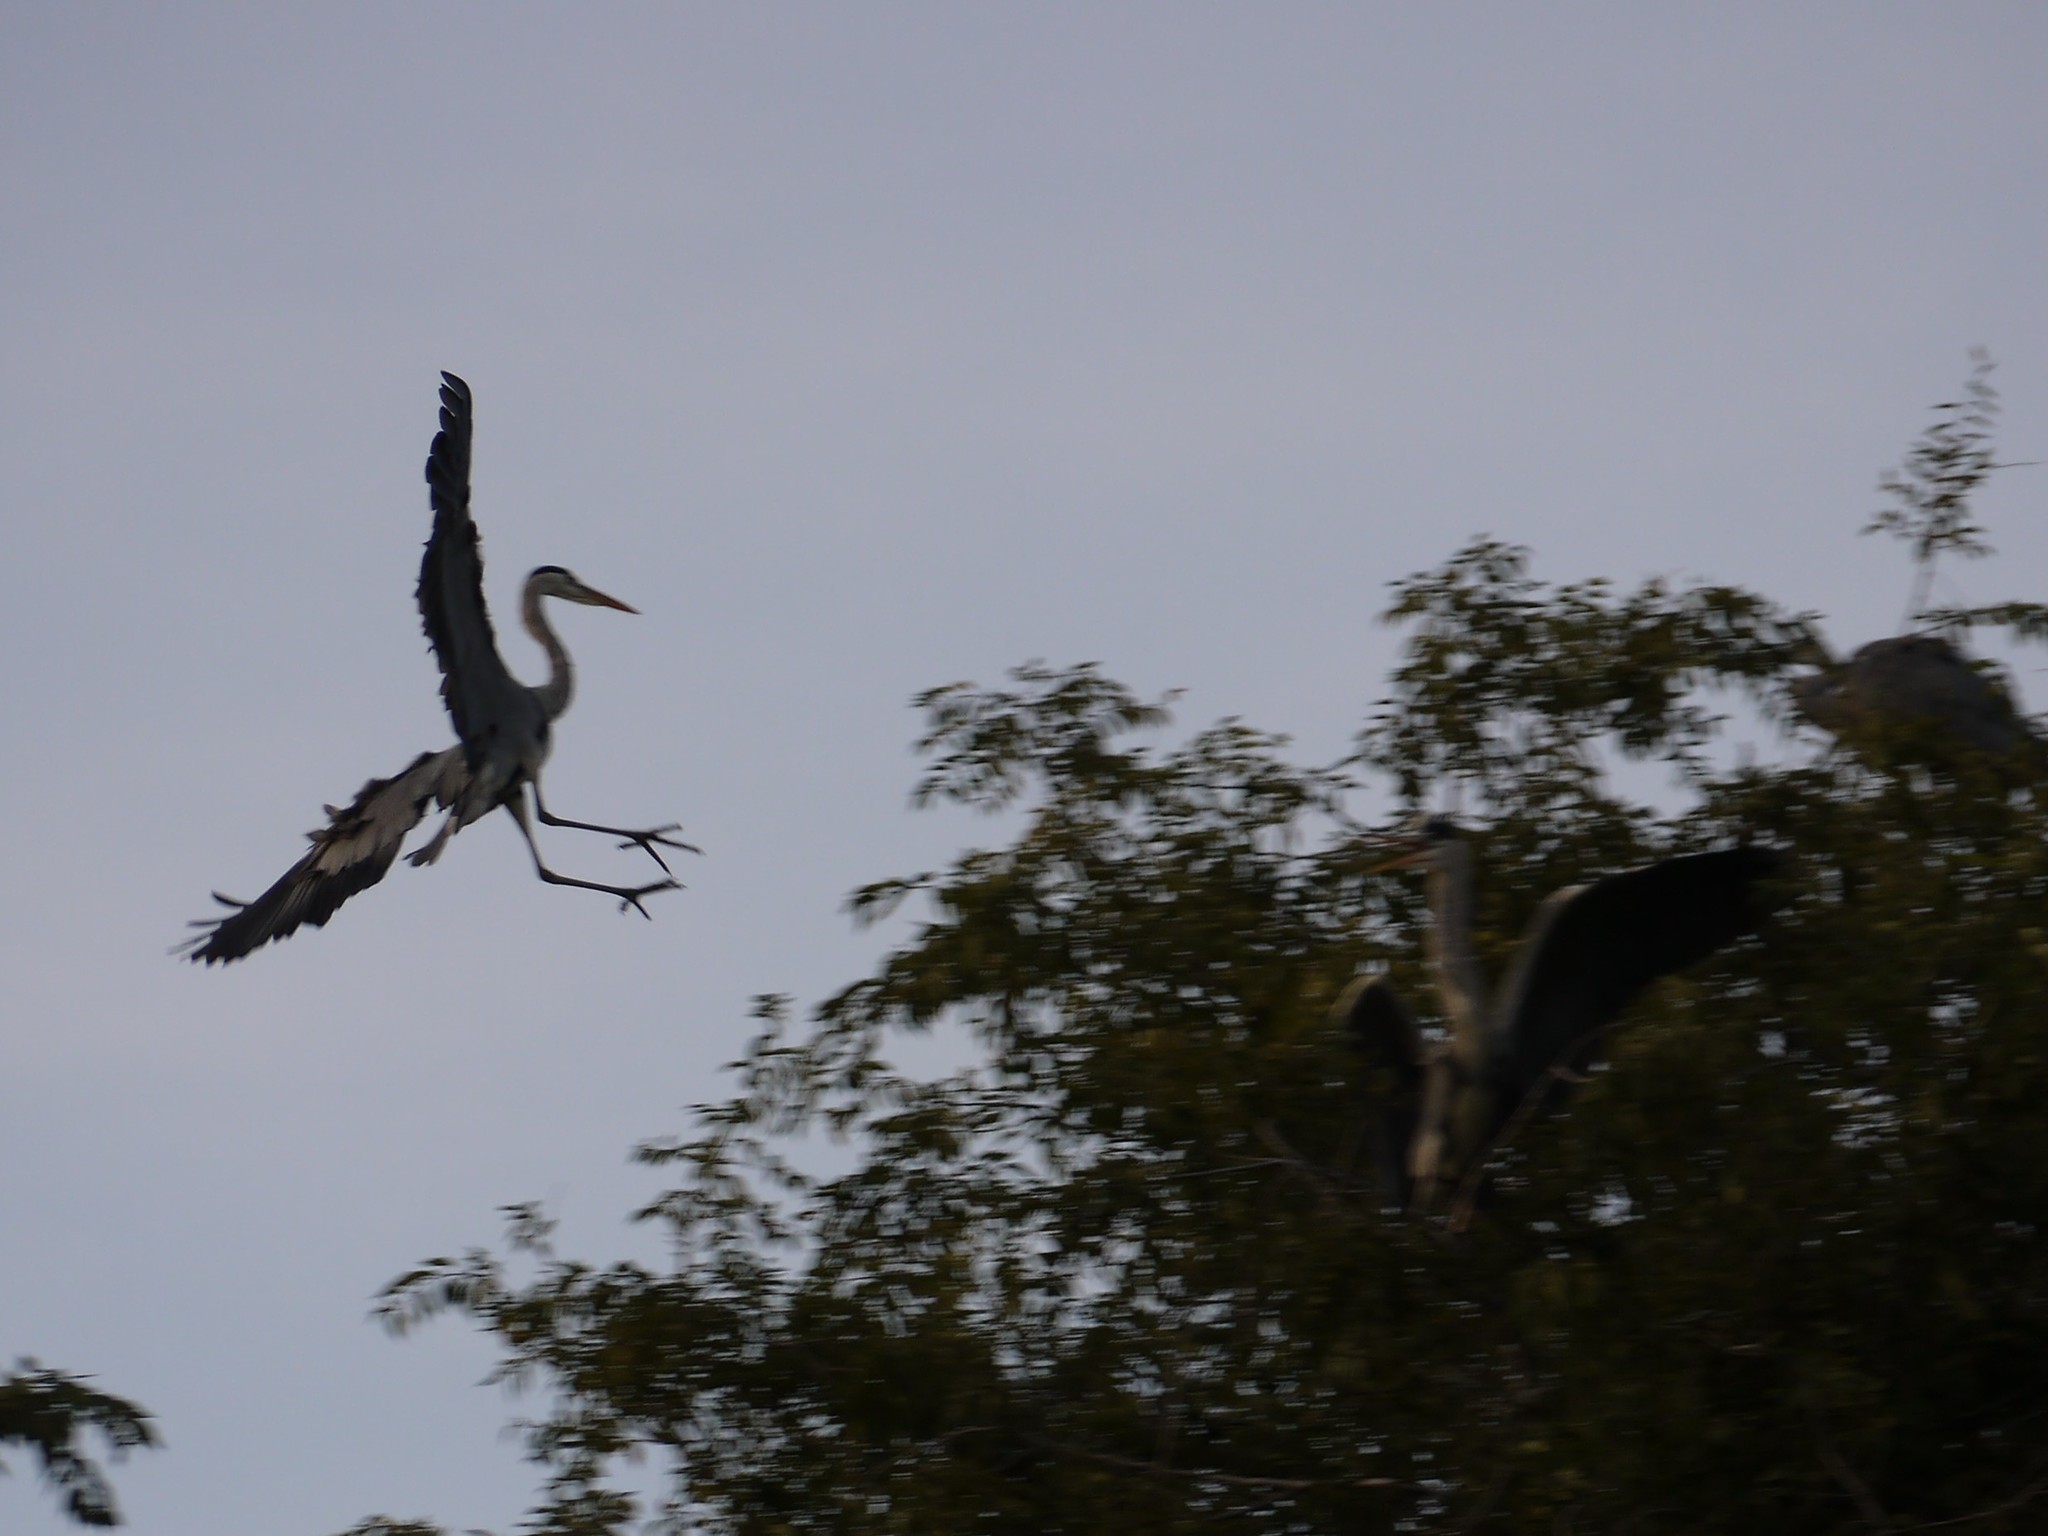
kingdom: Animalia
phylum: Chordata
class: Aves
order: Pelecaniformes
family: Ardeidae
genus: Ardea
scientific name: Ardea cinerea
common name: Grey heron
